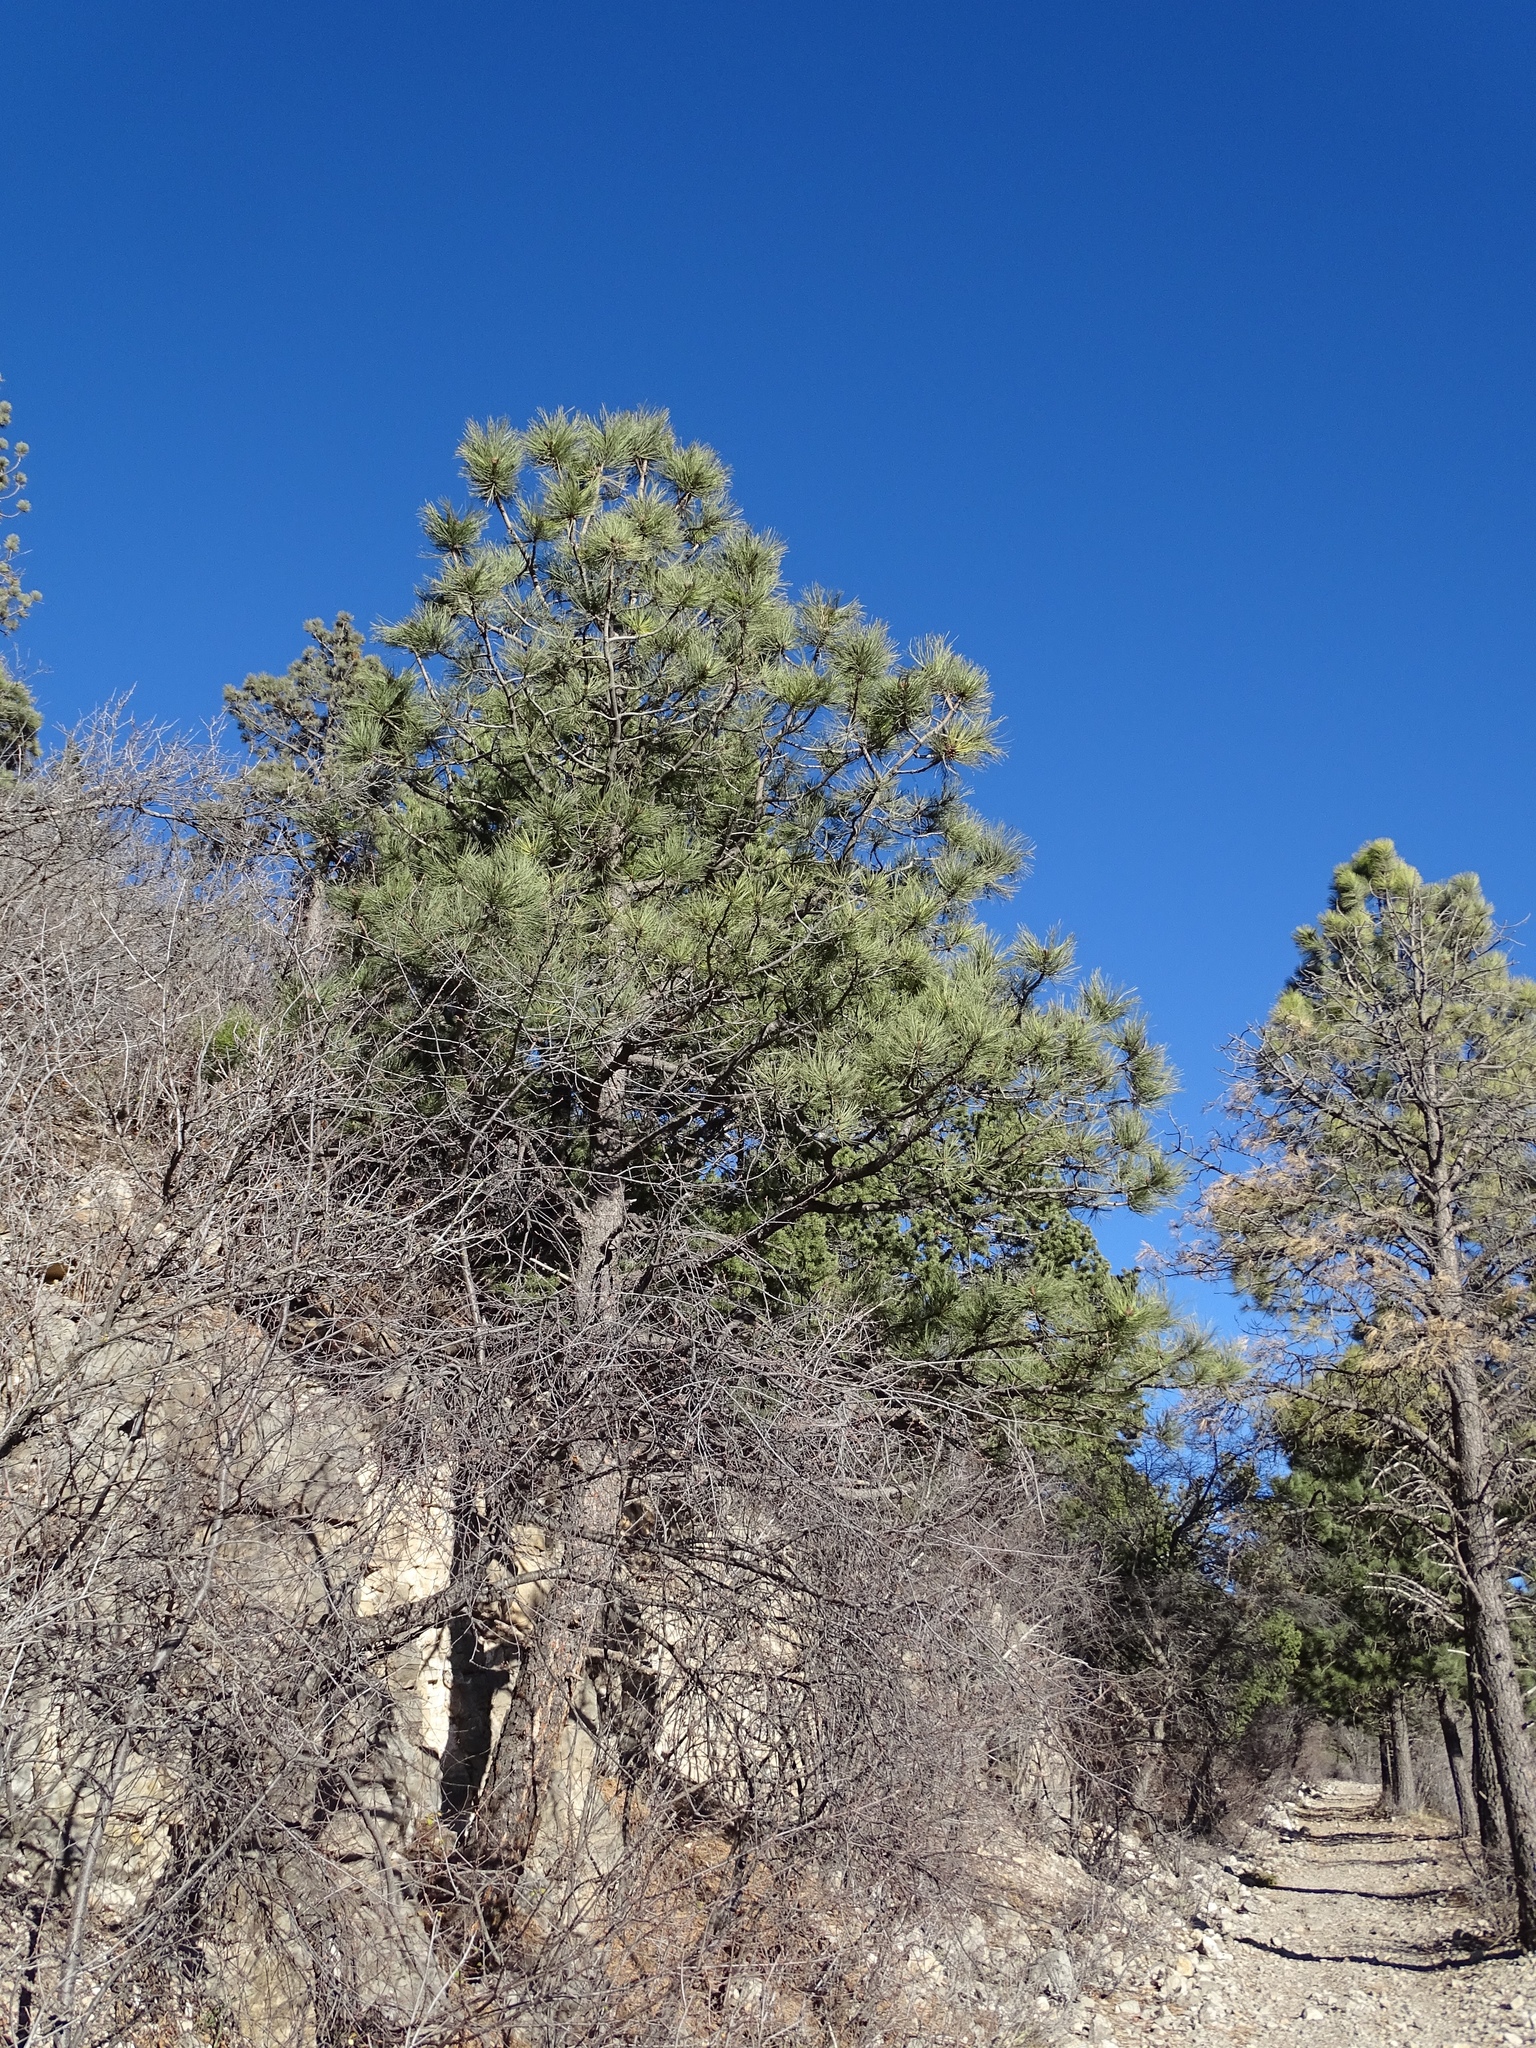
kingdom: Plantae
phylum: Tracheophyta
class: Pinopsida
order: Pinales
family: Pinaceae
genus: Pinus
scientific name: Pinus ponderosa
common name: Western yellow-pine
